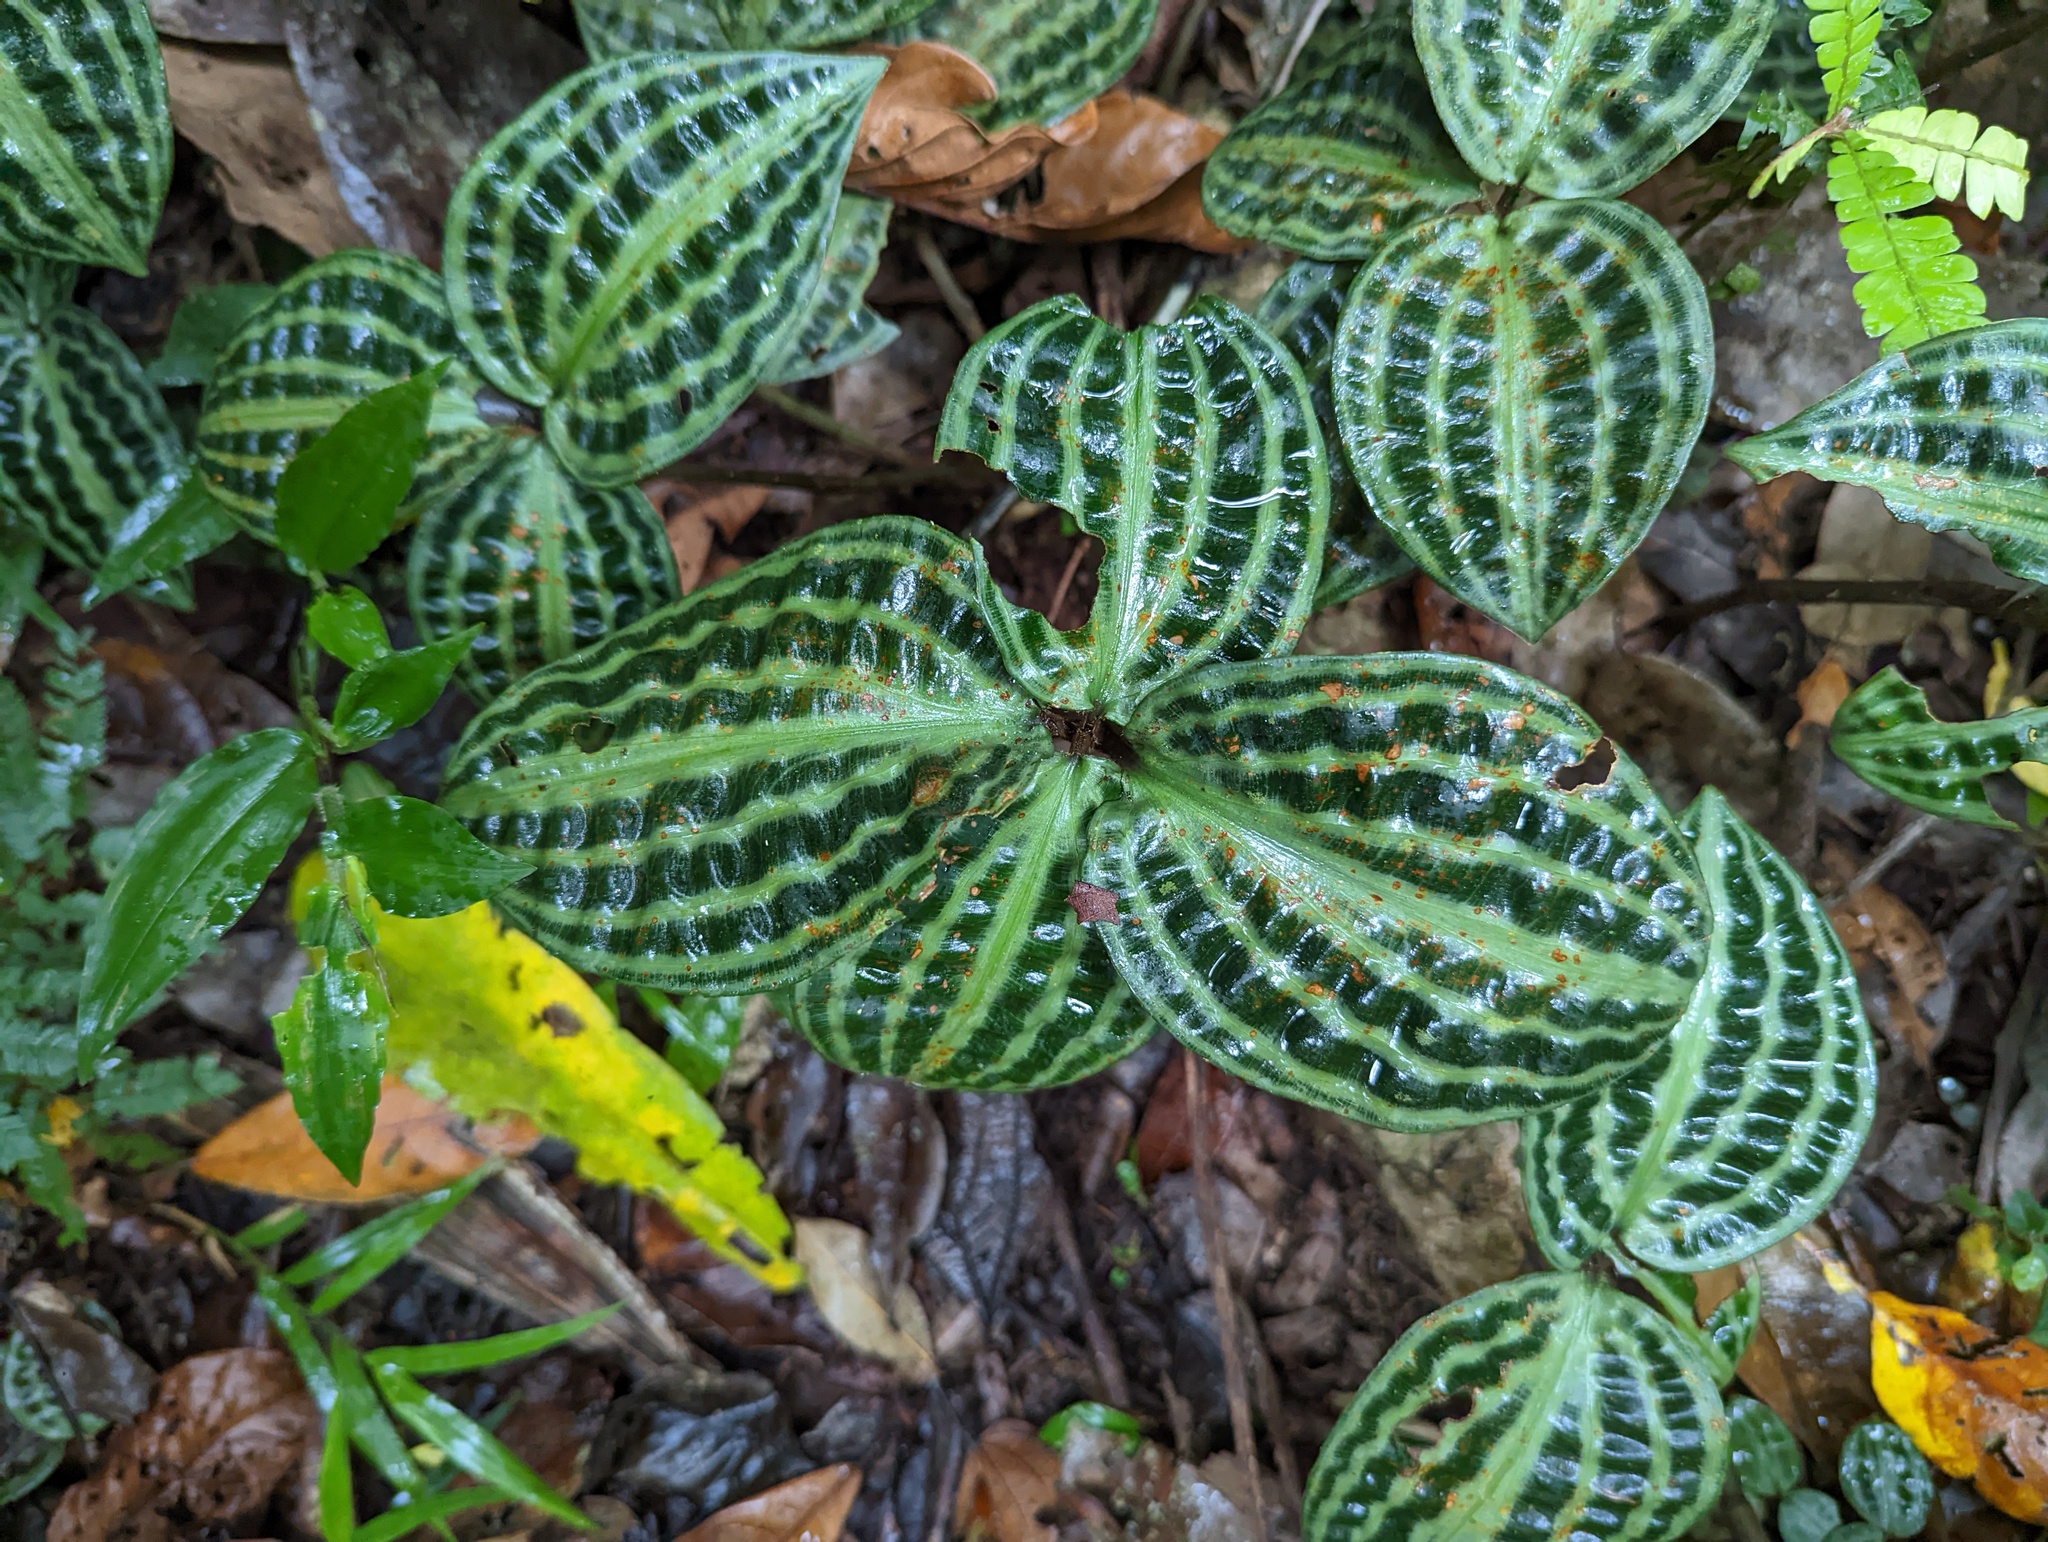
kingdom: Plantae
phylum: Tracheophyta
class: Liliopsida
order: Commelinales
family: Commelinaceae
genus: Geogenanthus
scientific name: Geogenanthus poeppigii
